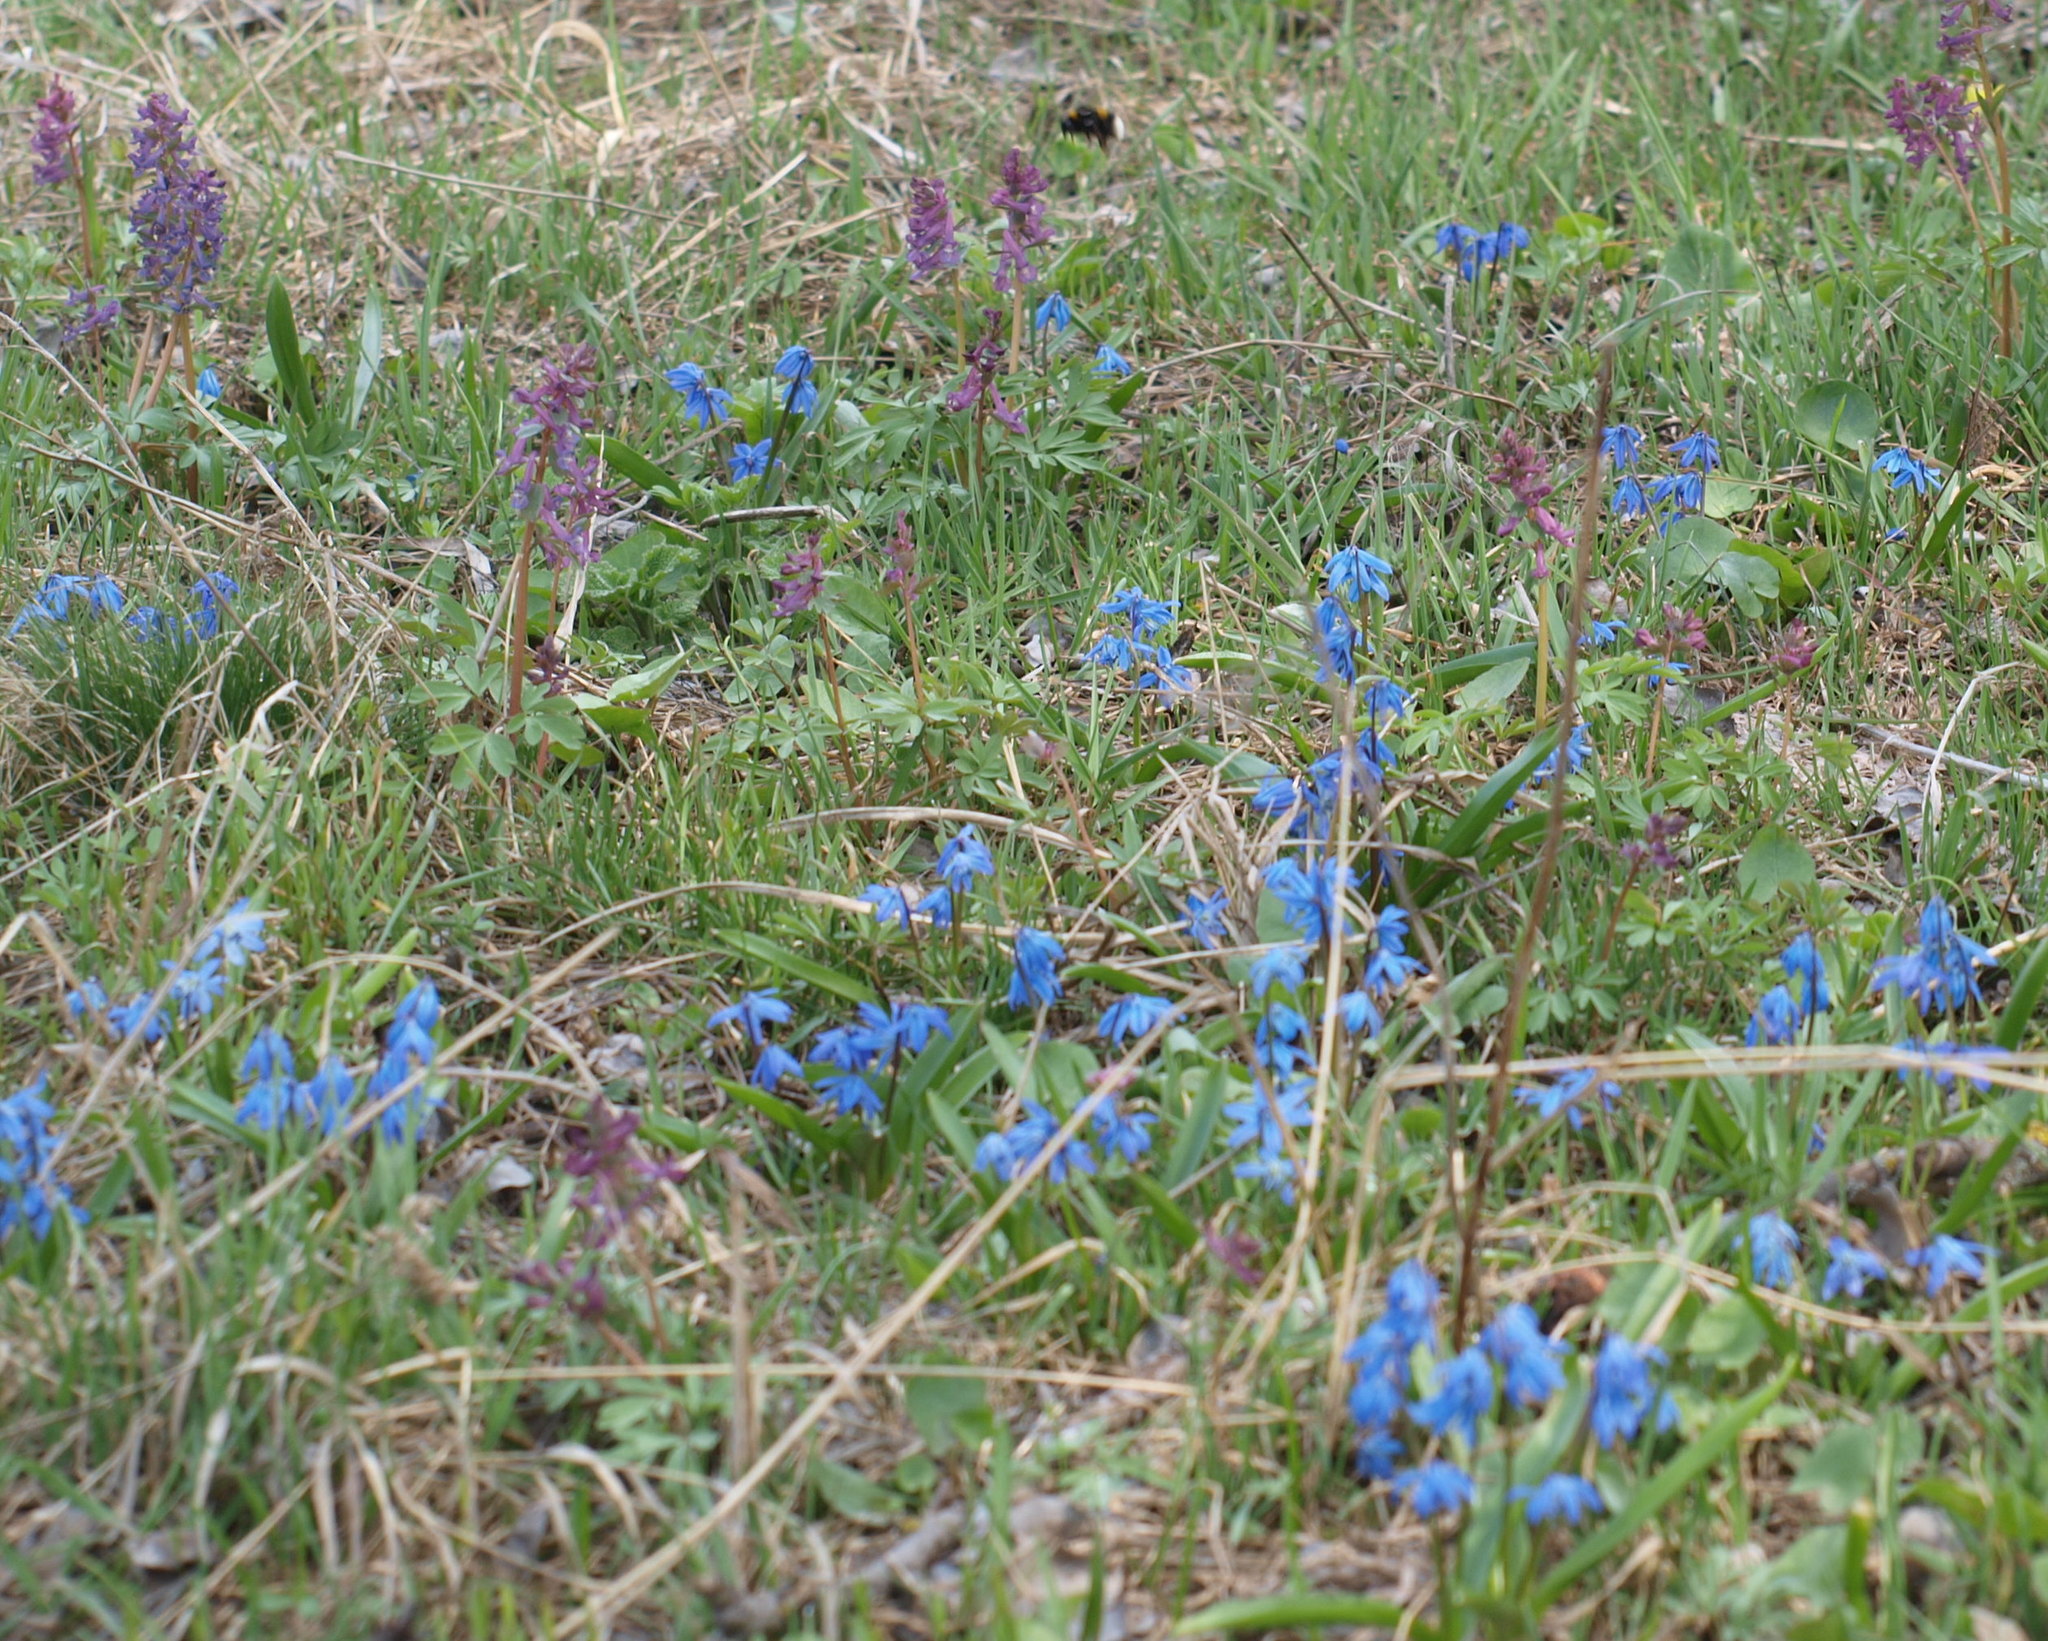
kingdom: Plantae
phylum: Tracheophyta
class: Liliopsida
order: Asparagales
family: Asparagaceae
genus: Scilla
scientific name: Scilla siberica
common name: Siberian squill
